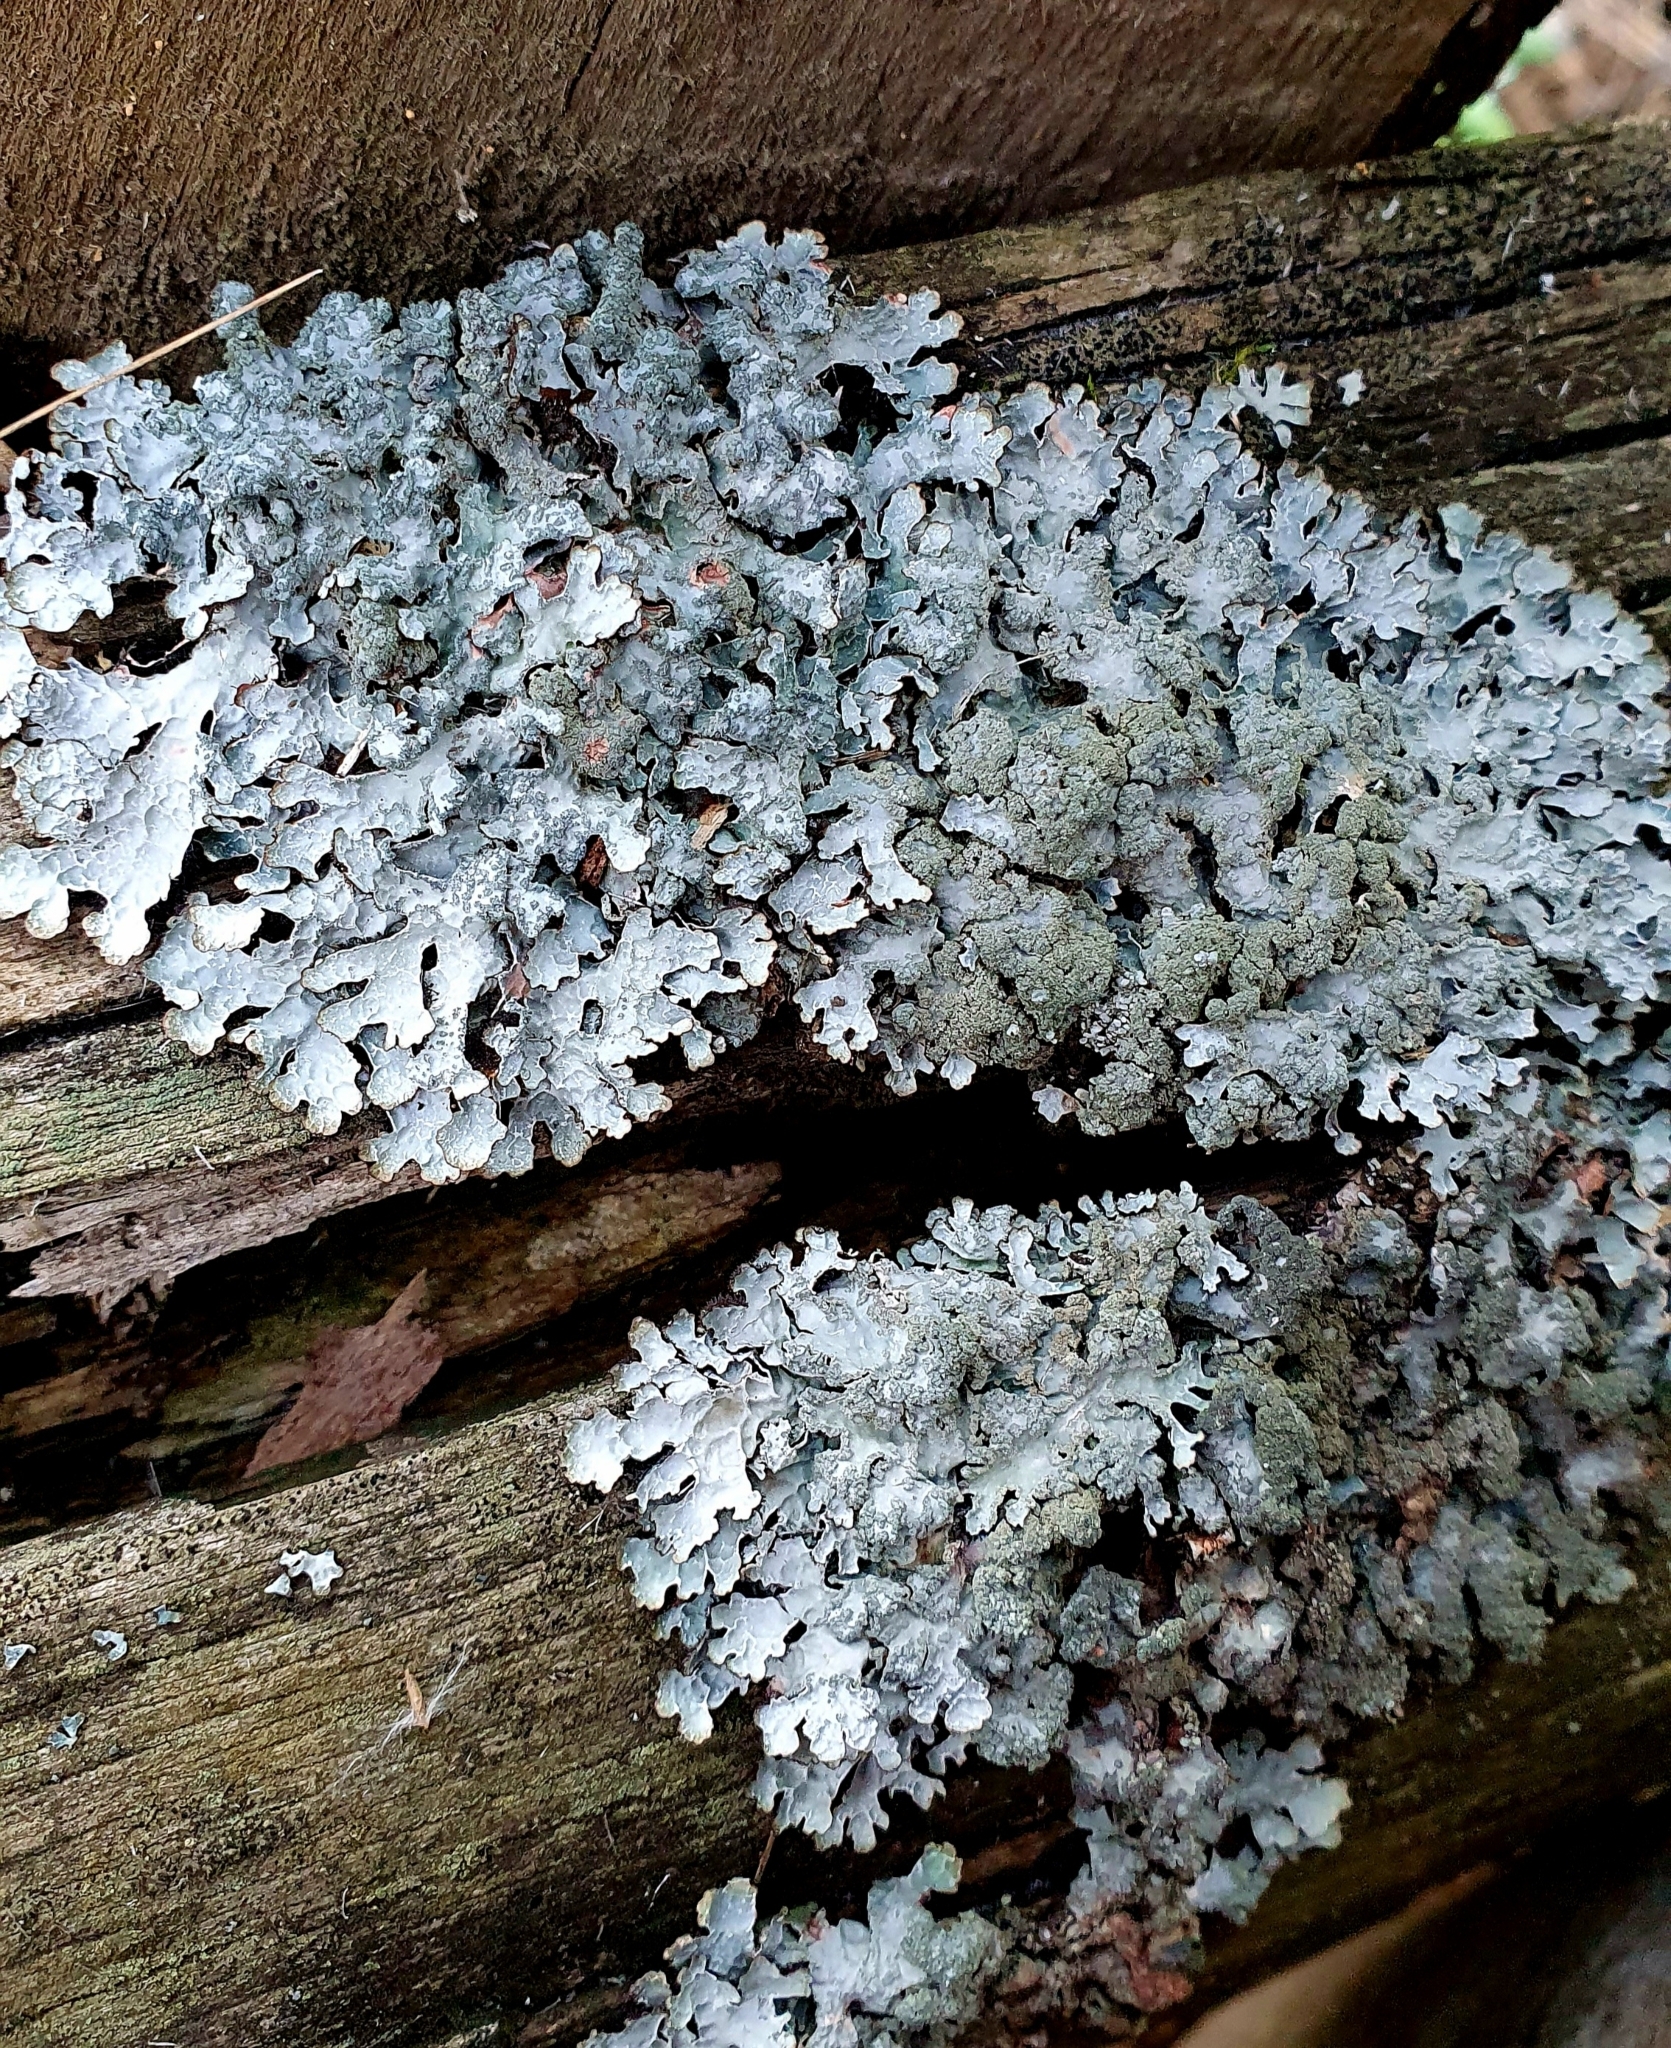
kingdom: Fungi
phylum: Ascomycota
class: Lecanoromycetes
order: Lecanorales
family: Parmeliaceae
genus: Parmelia
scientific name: Parmelia sulcata
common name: Netted shield lichen
